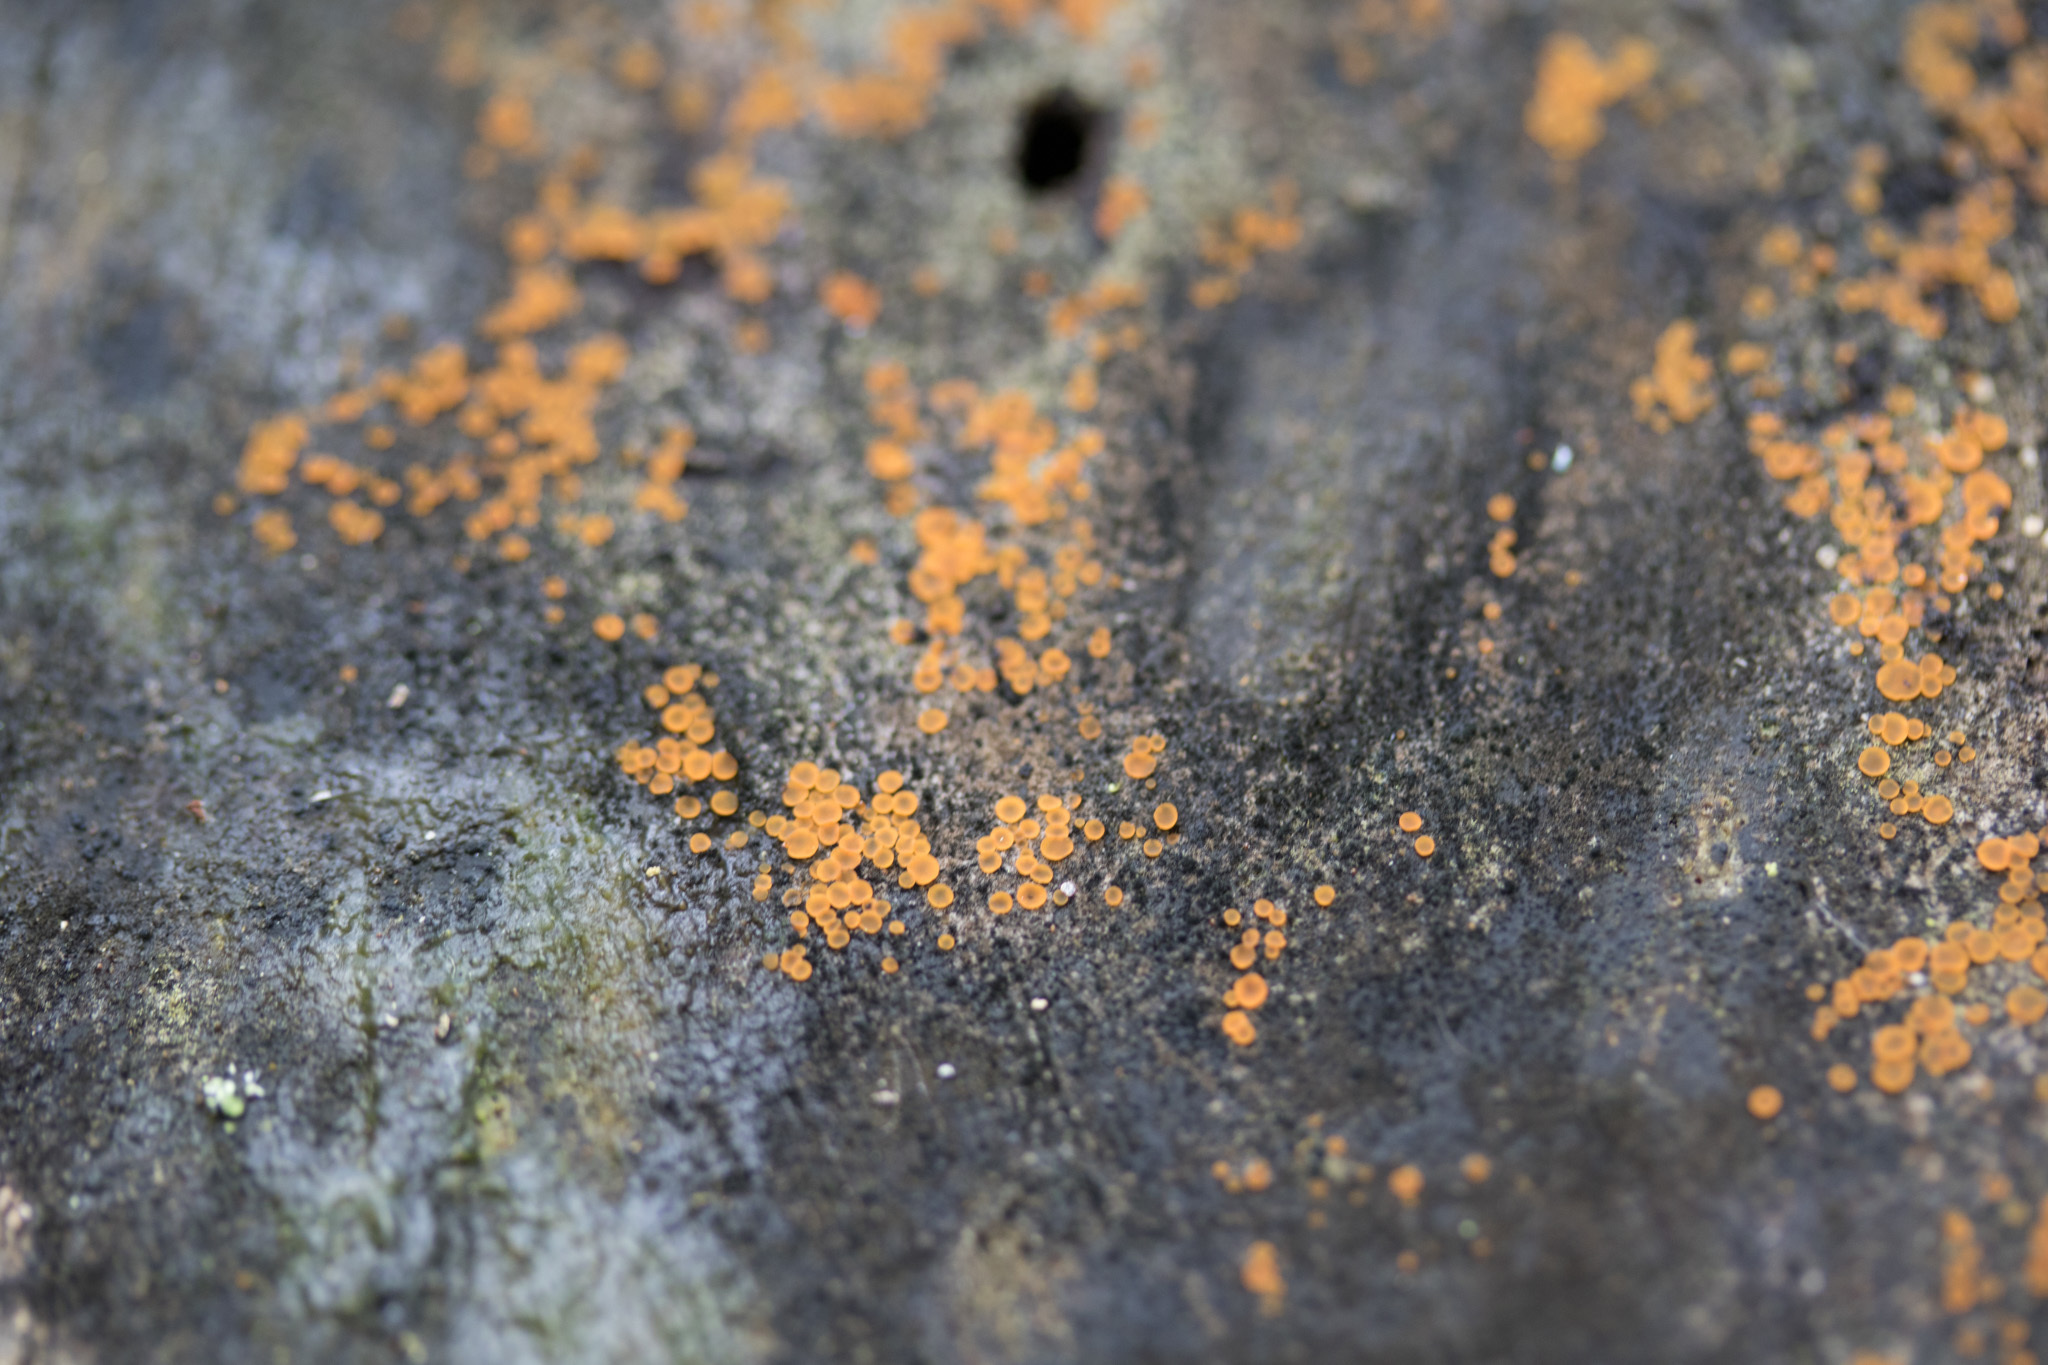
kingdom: Fungi
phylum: Ascomycota
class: Orbiliomycetes
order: Orbiliales
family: Orbiliaceae
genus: Orbilia
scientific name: Orbilia
